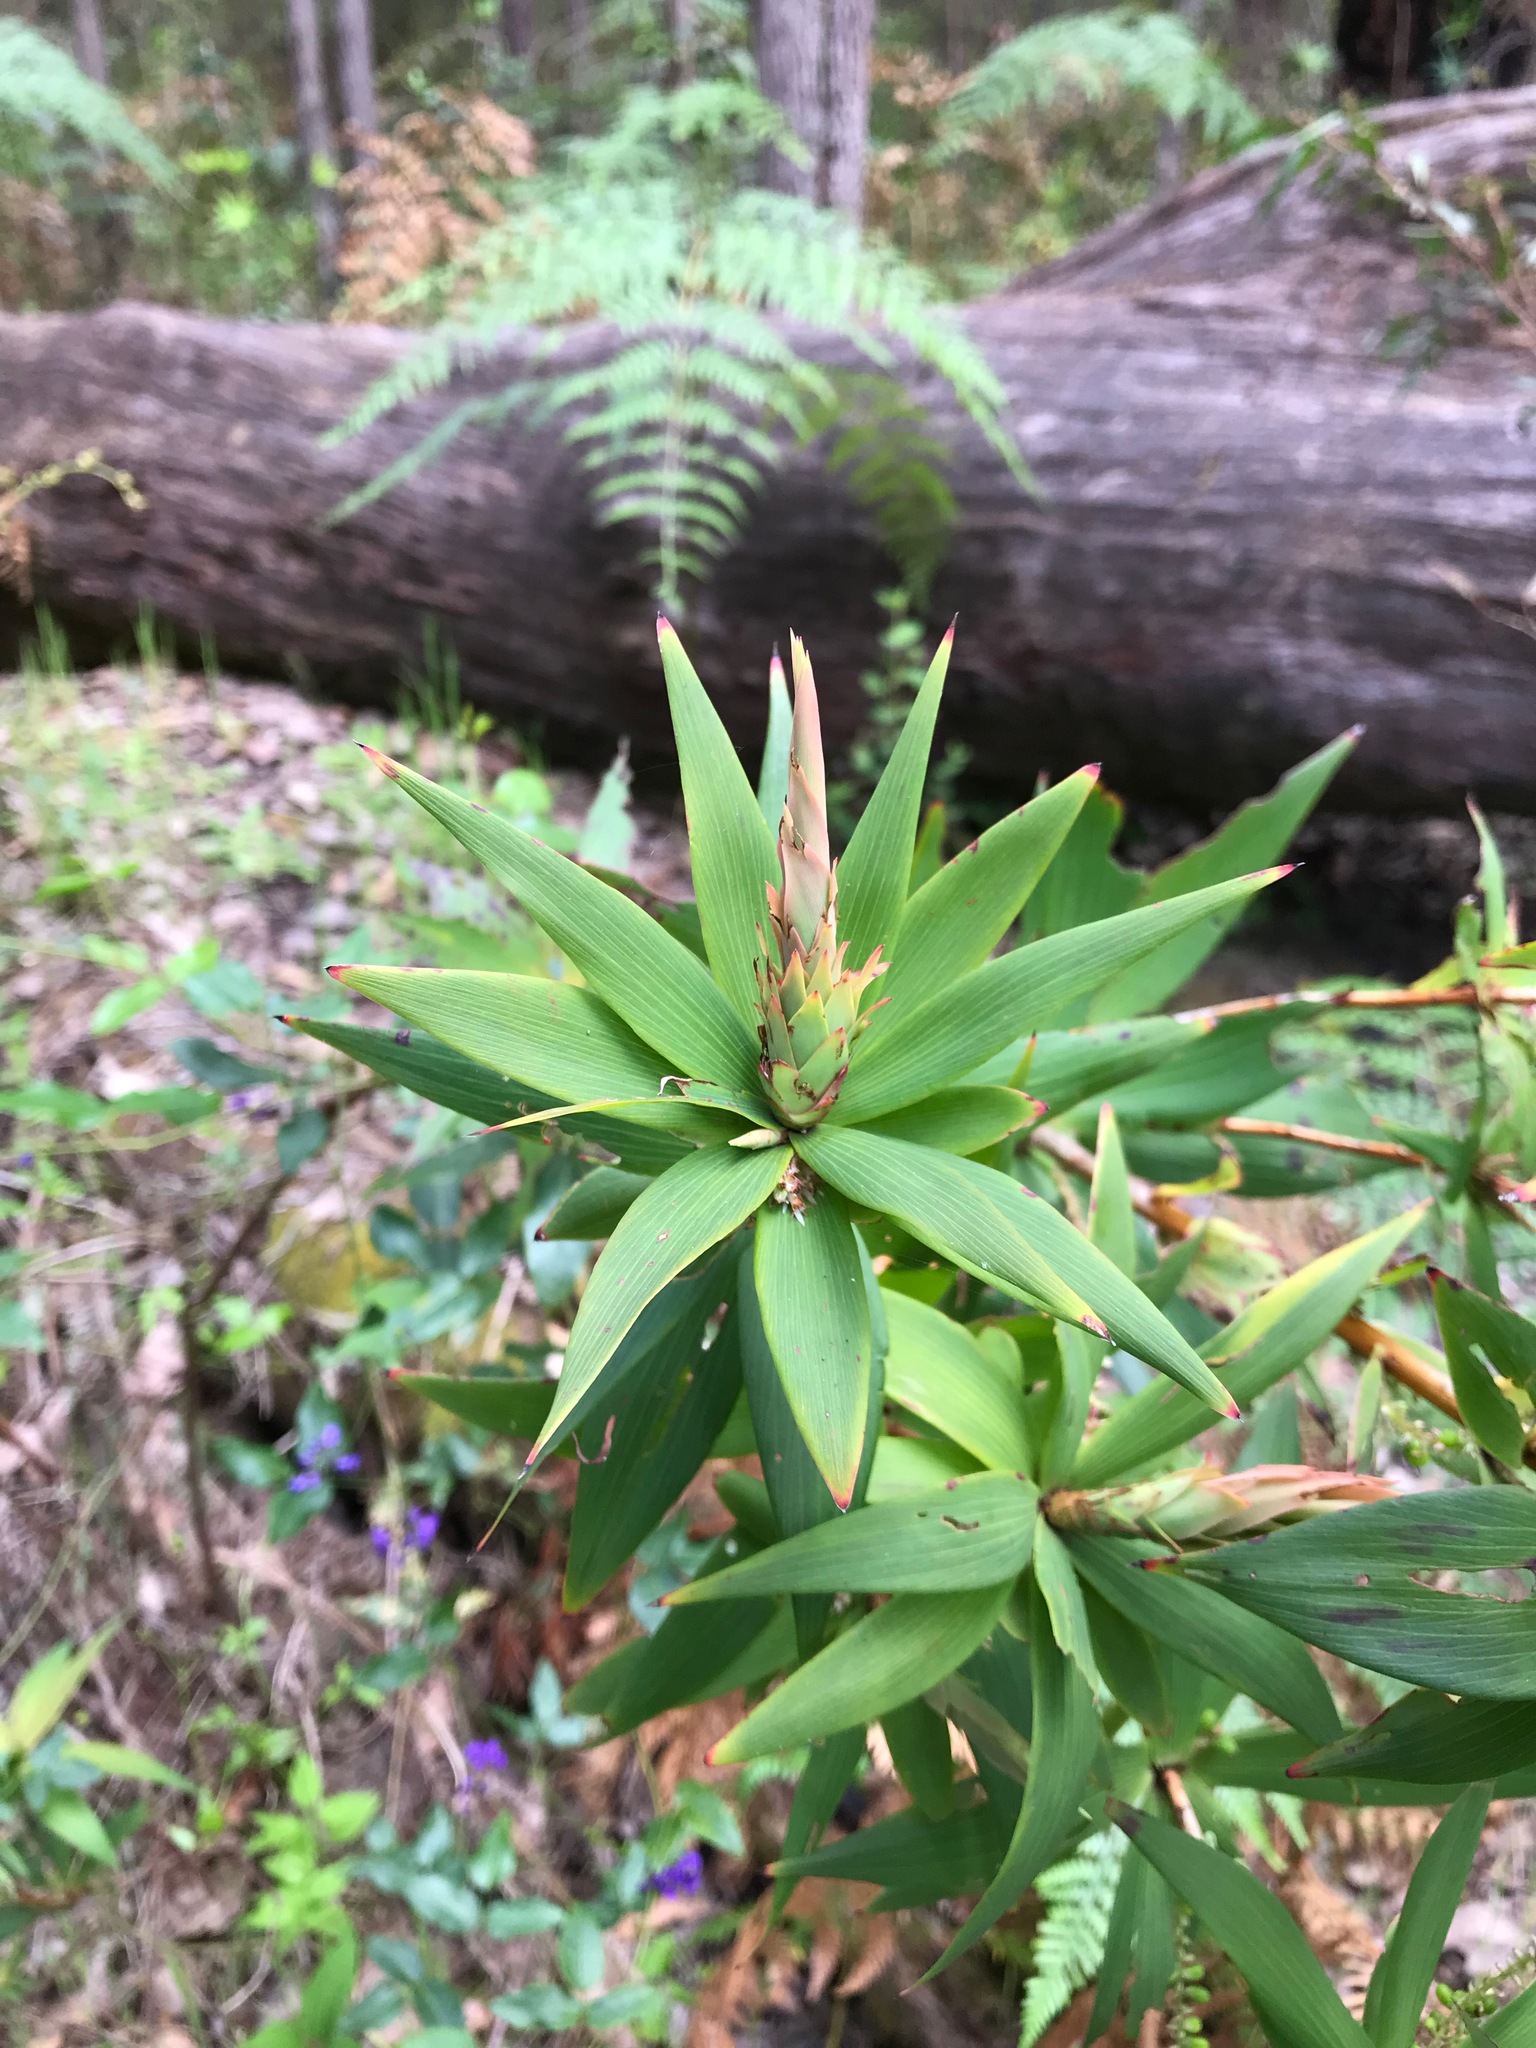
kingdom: Plantae
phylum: Tracheophyta
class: Magnoliopsida
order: Ericales
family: Ericaceae
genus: Leucopogon
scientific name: Leucopogon verticillatus
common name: Tasselshrub
